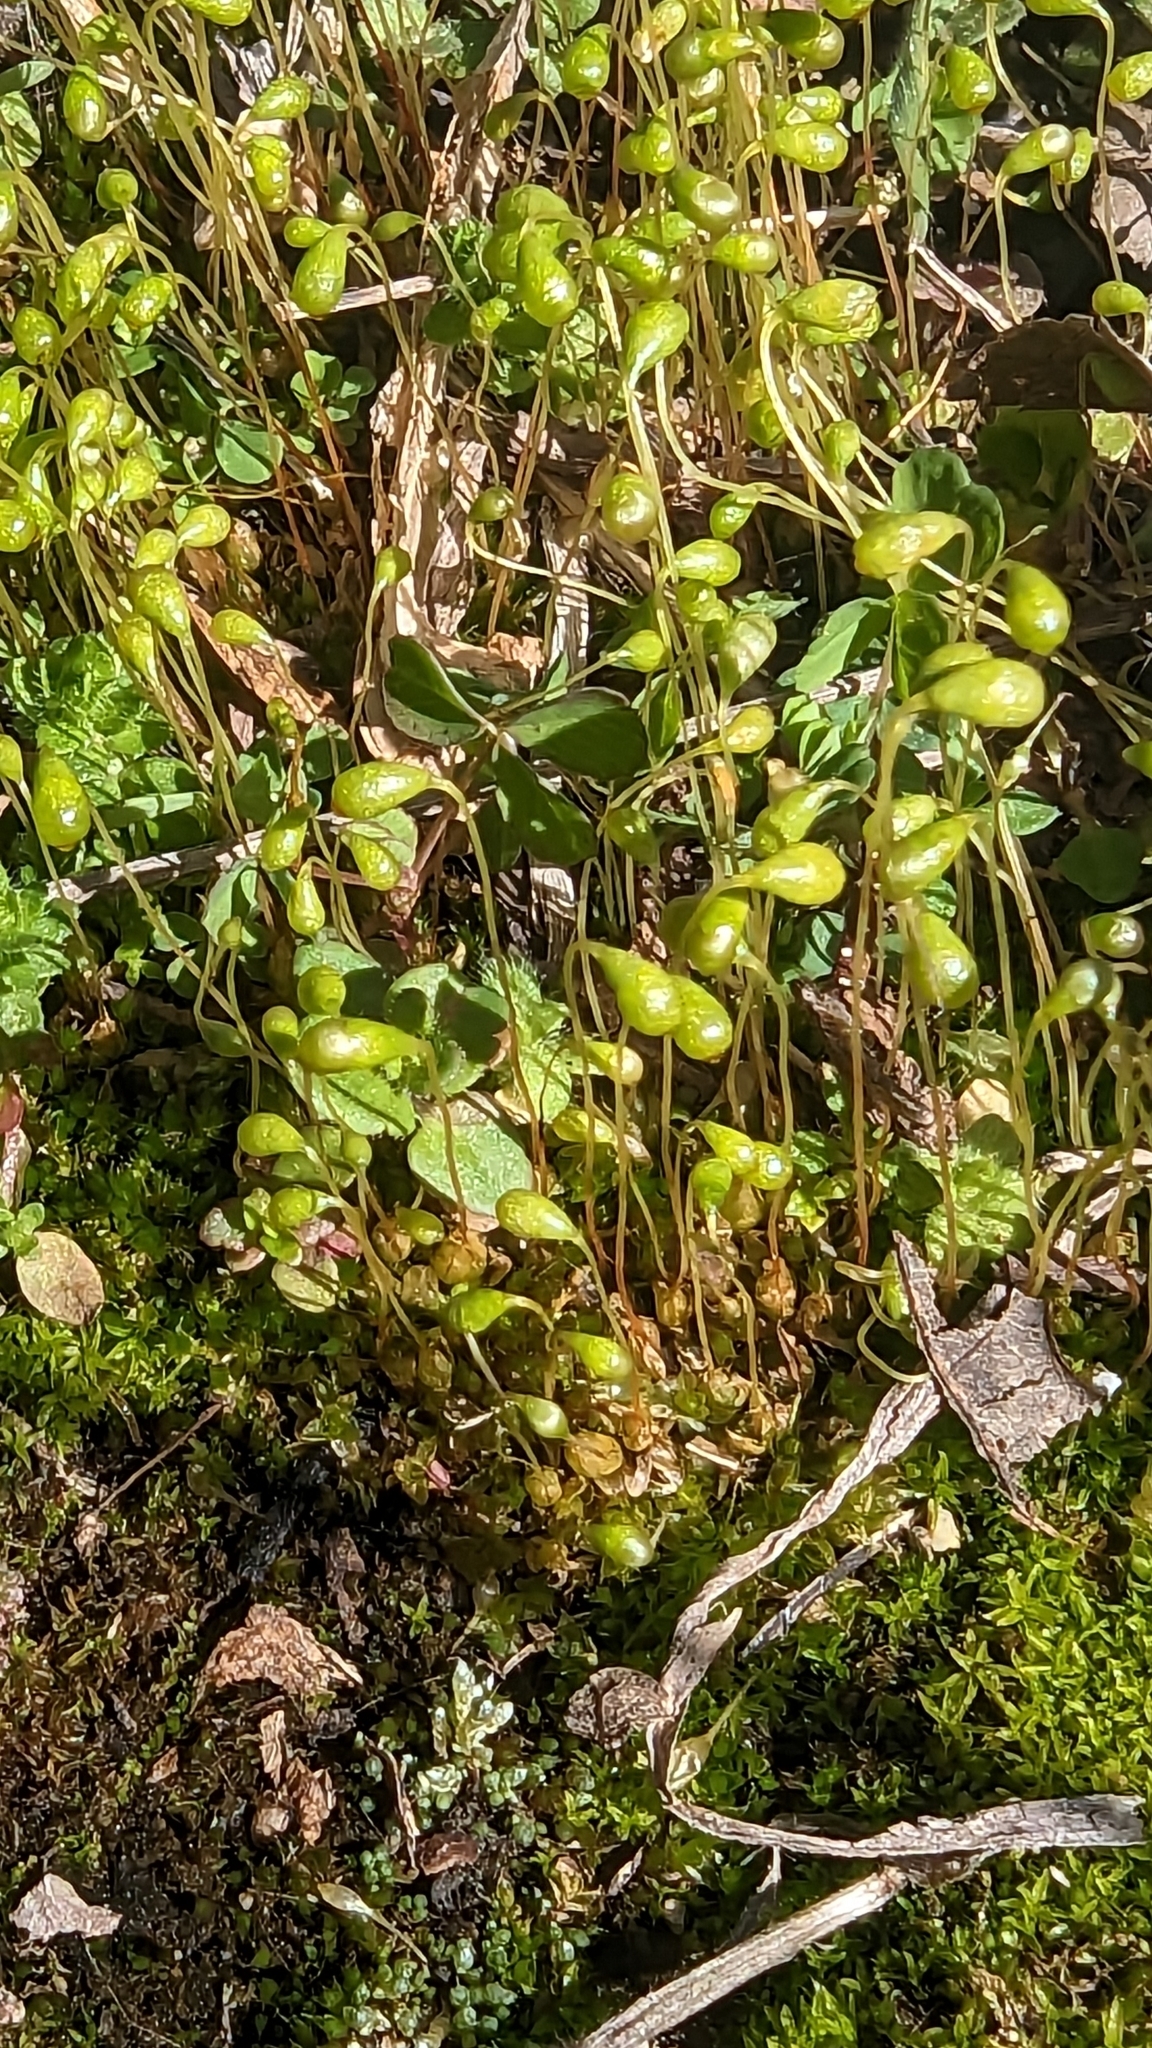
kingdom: Plantae
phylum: Bryophyta
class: Bryopsida
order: Funariales
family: Funariaceae
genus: Funaria
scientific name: Funaria hygrometrica
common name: Common cord moss
